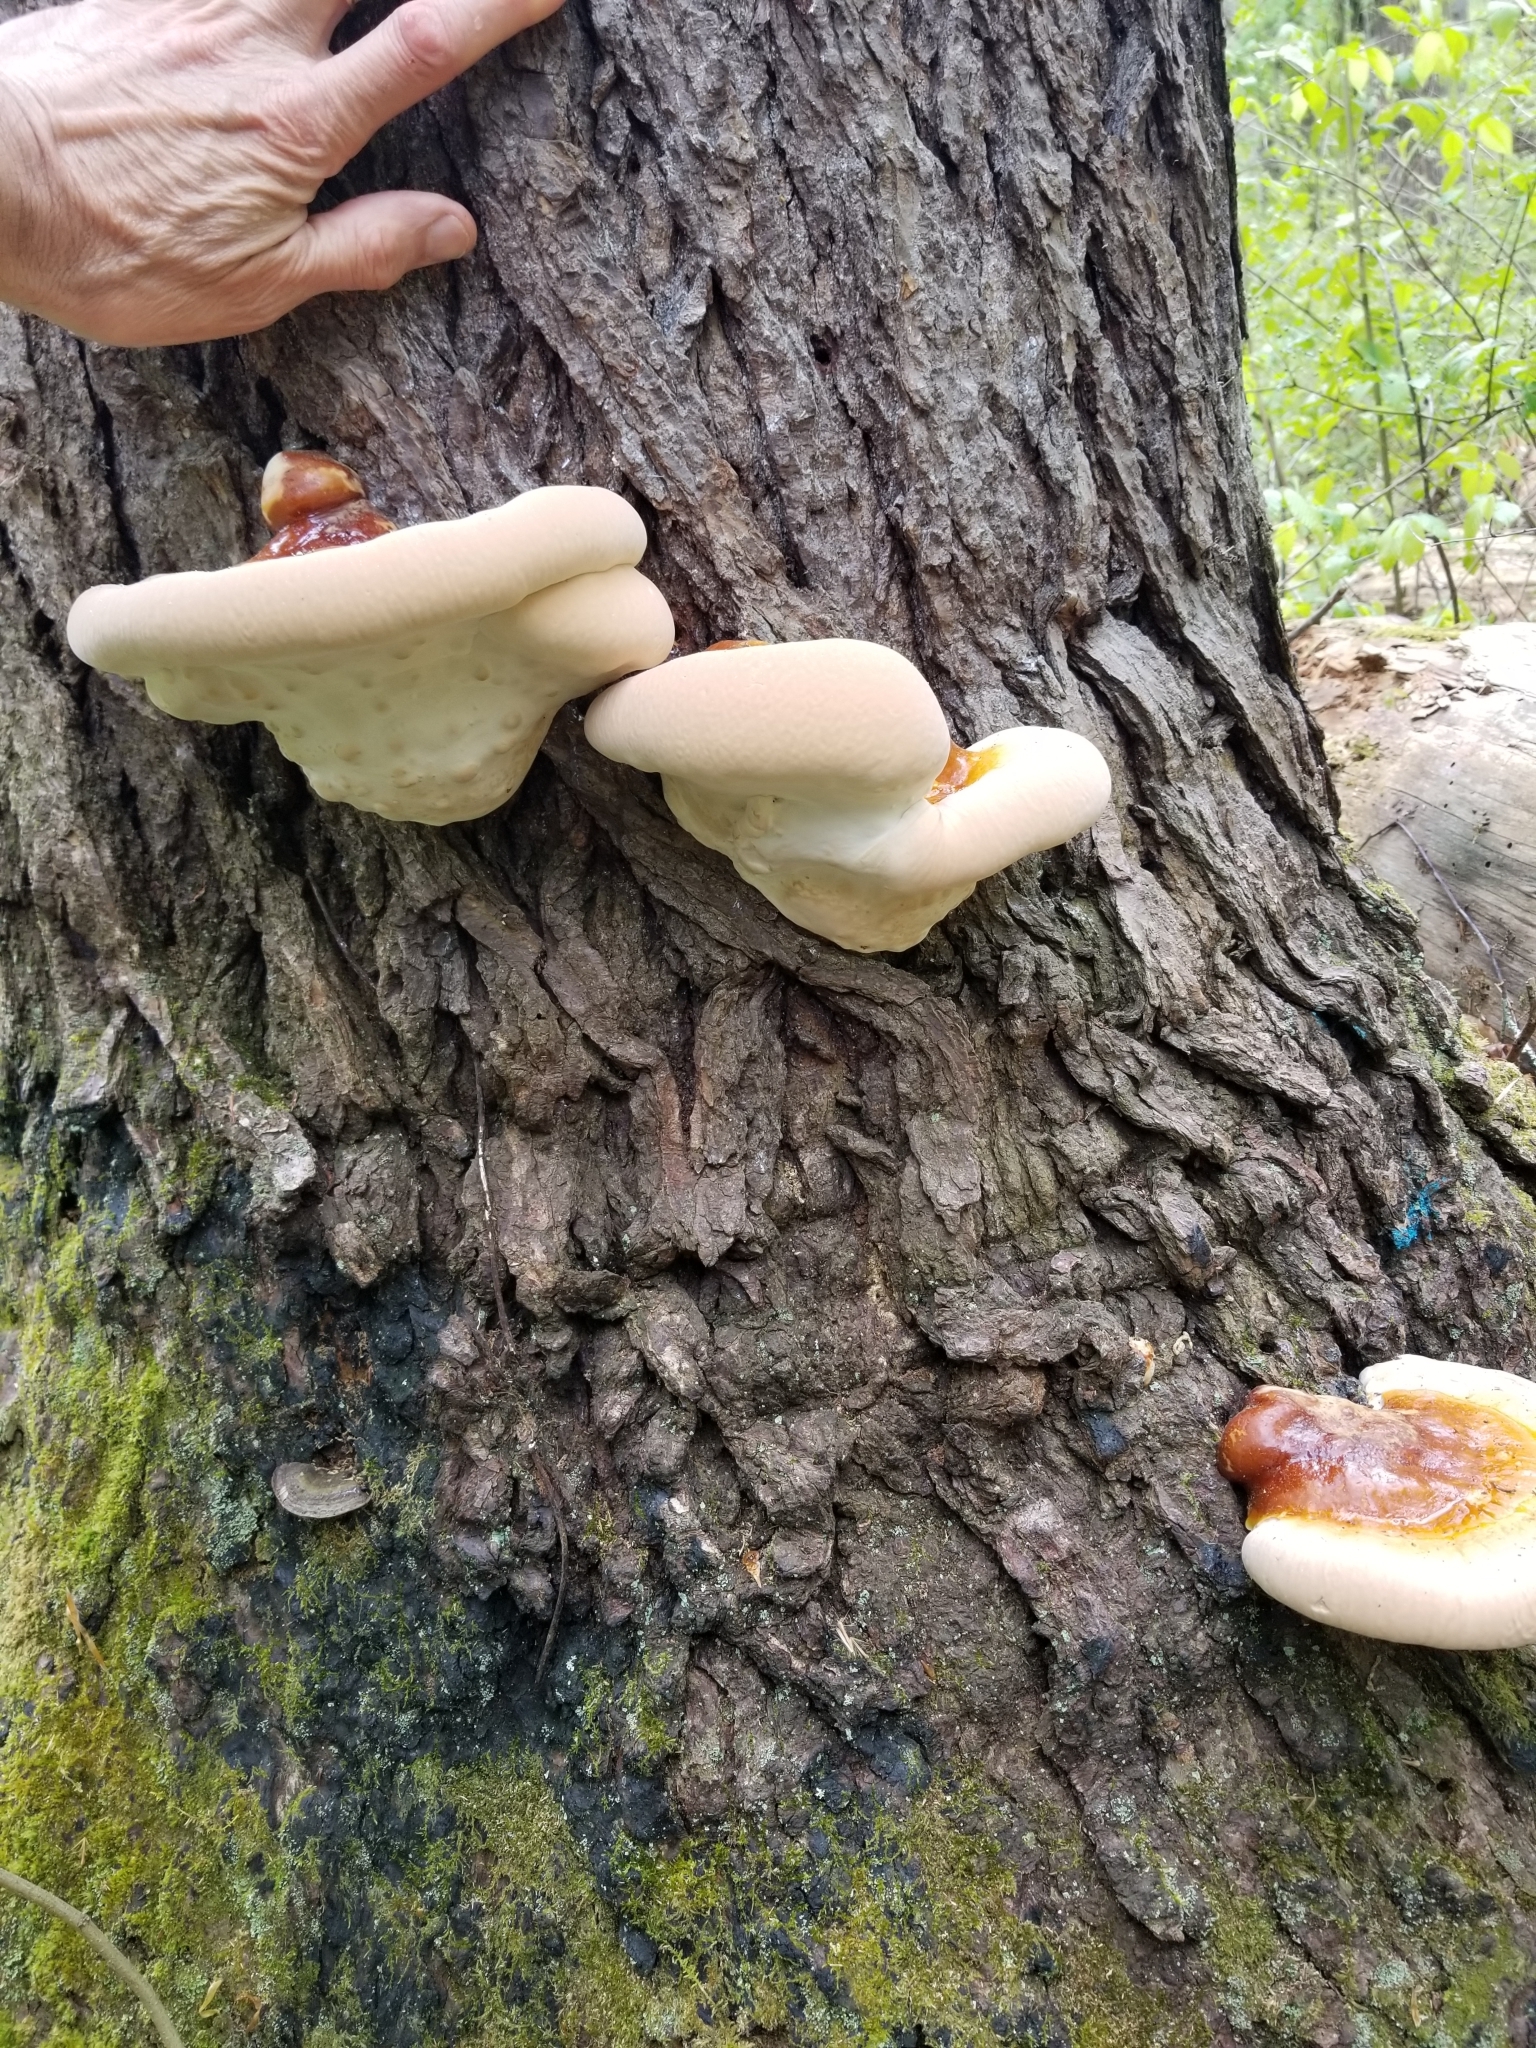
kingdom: Fungi
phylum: Basidiomycota
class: Agaricomycetes
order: Polyporales
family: Polyporaceae
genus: Ganoderma
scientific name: Ganoderma tsugae
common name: Hemlock varnish shelf
